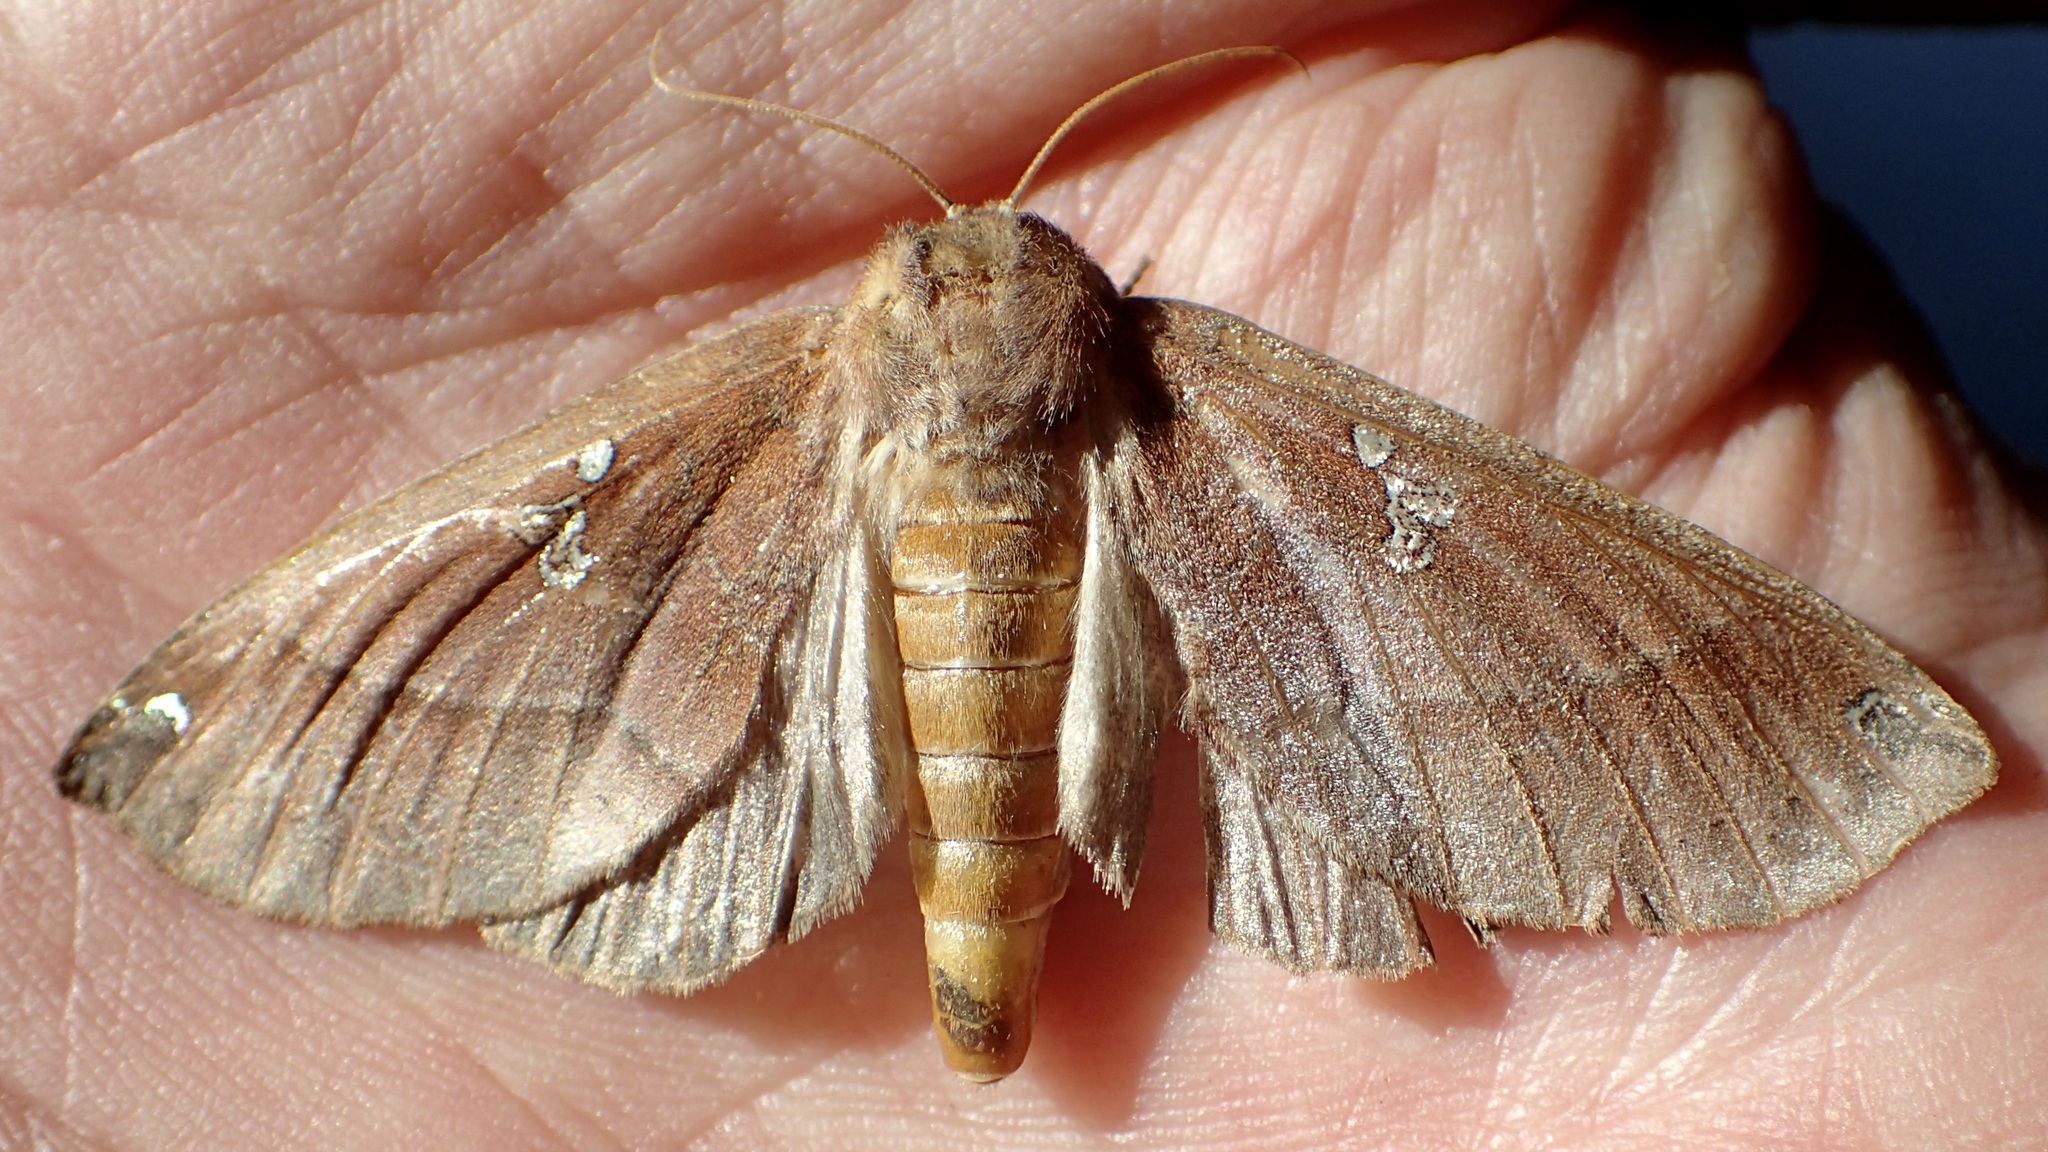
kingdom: Animalia
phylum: Arthropoda
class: Insecta
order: Lepidoptera
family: Notodontidae
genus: Pseudhapigia
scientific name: Pseudhapigia brunnea
